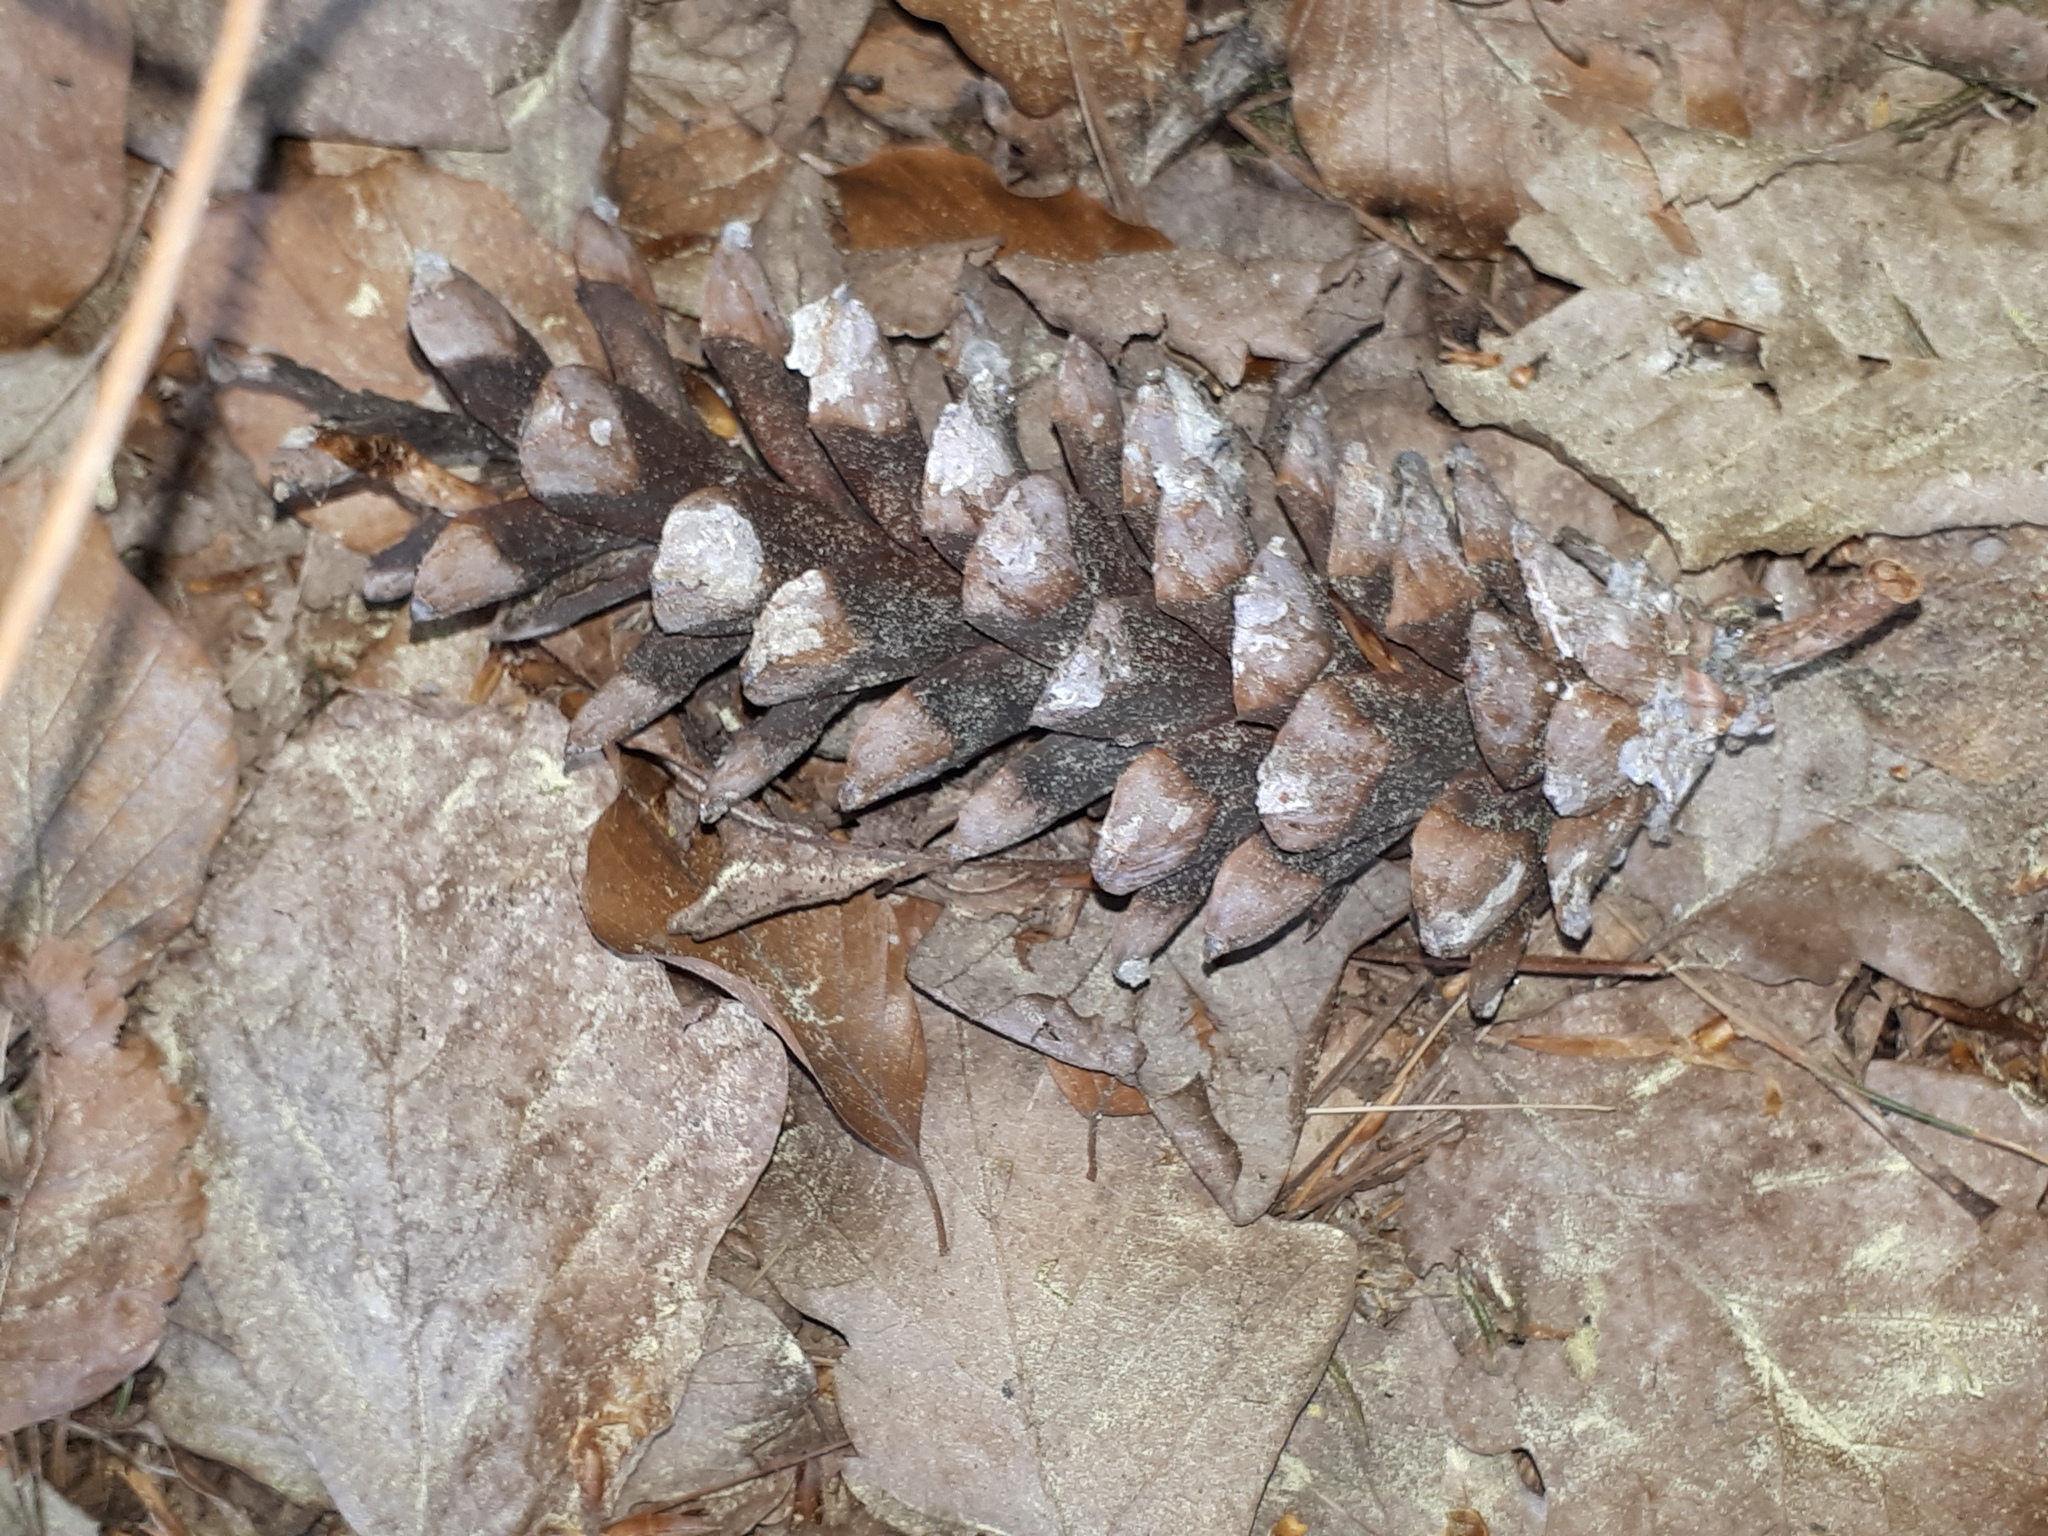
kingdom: Plantae
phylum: Tracheophyta
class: Pinopsida
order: Pinales
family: Pinaceae
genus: Pinus
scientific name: Pinus strobus
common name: Weymouth pine
